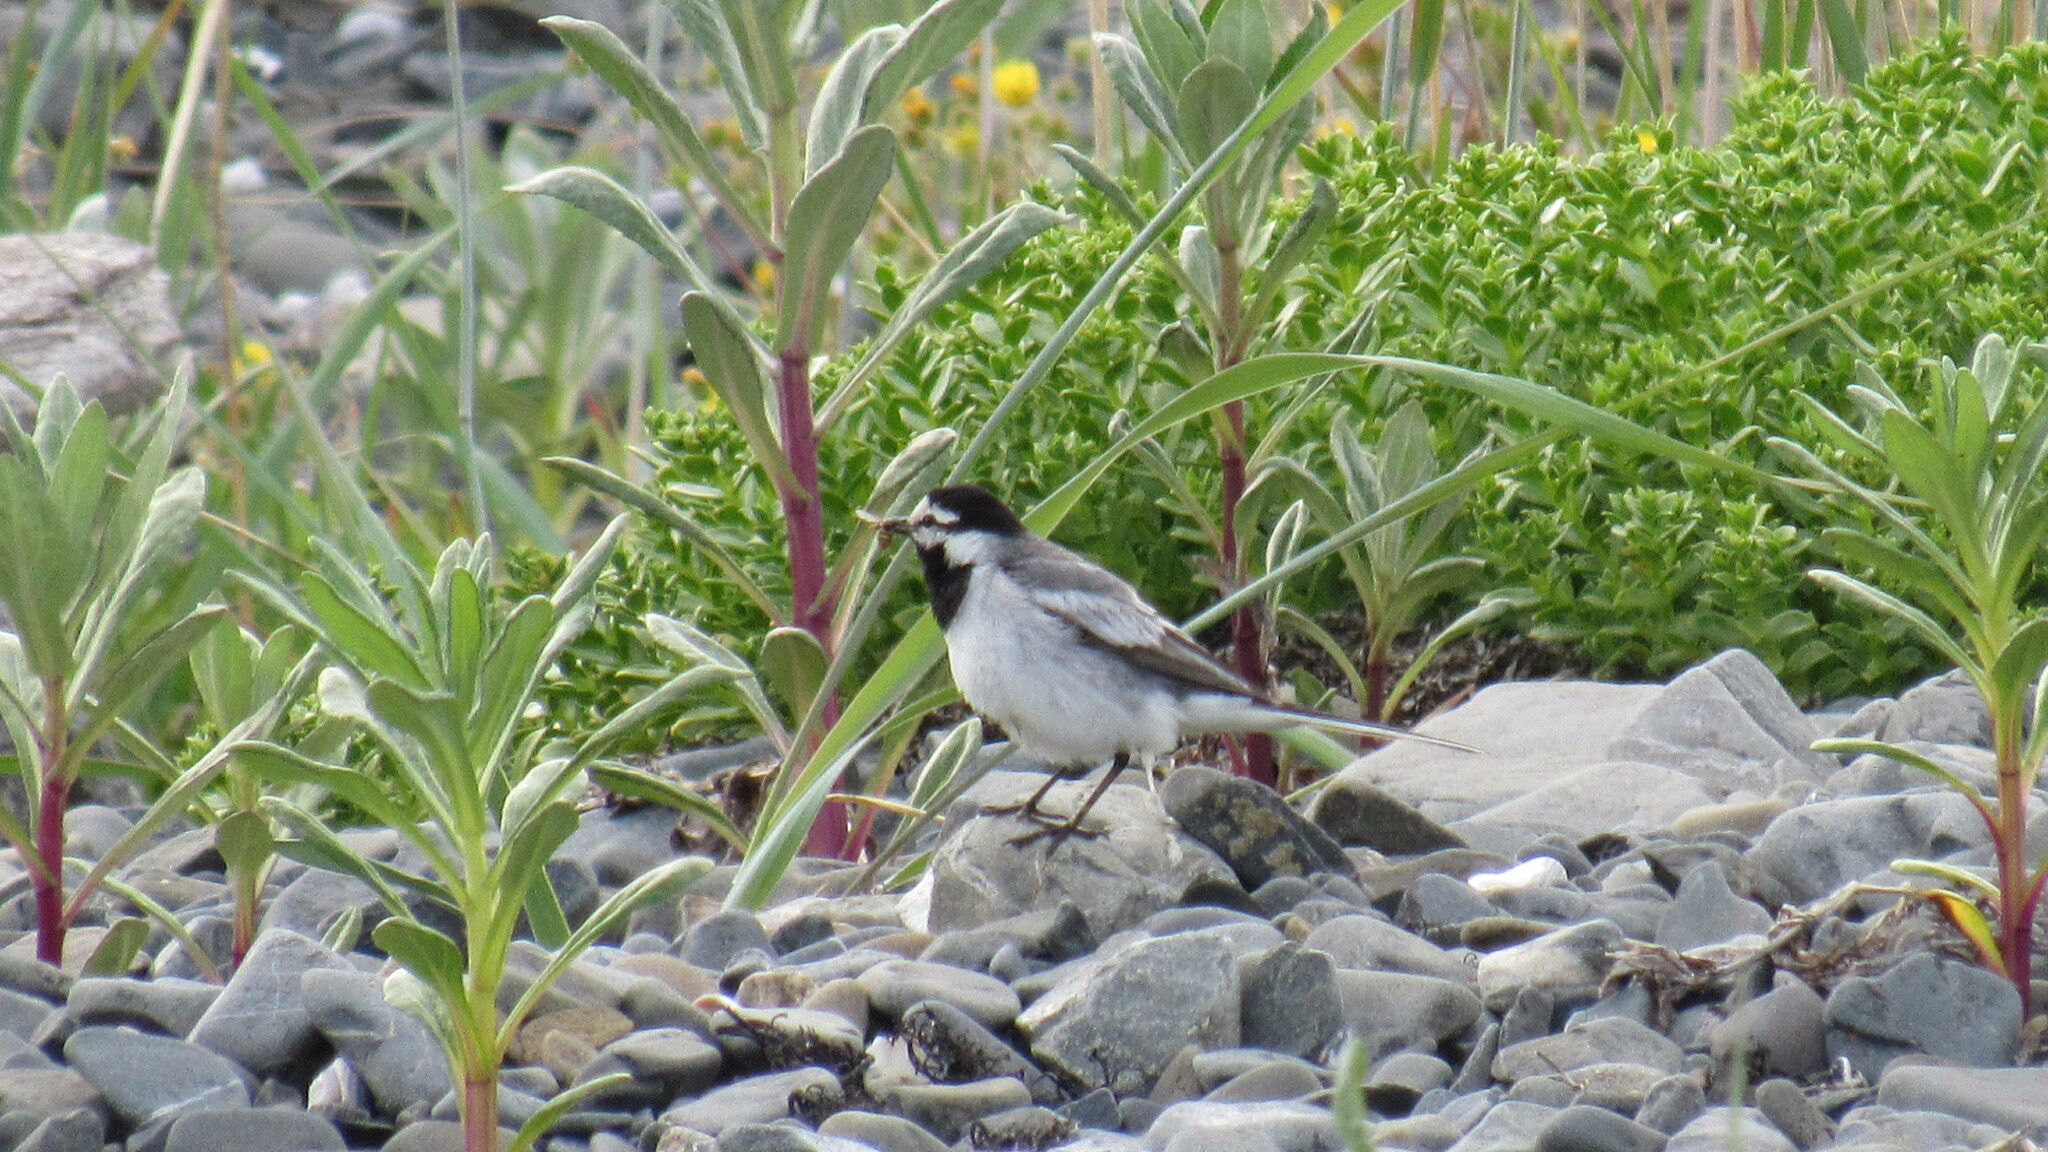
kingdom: Animalia
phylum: Chordata
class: Aves
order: Passeriformes
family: Motacillidae
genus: Motacilla
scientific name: Motacilla alba
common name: White wagtail
